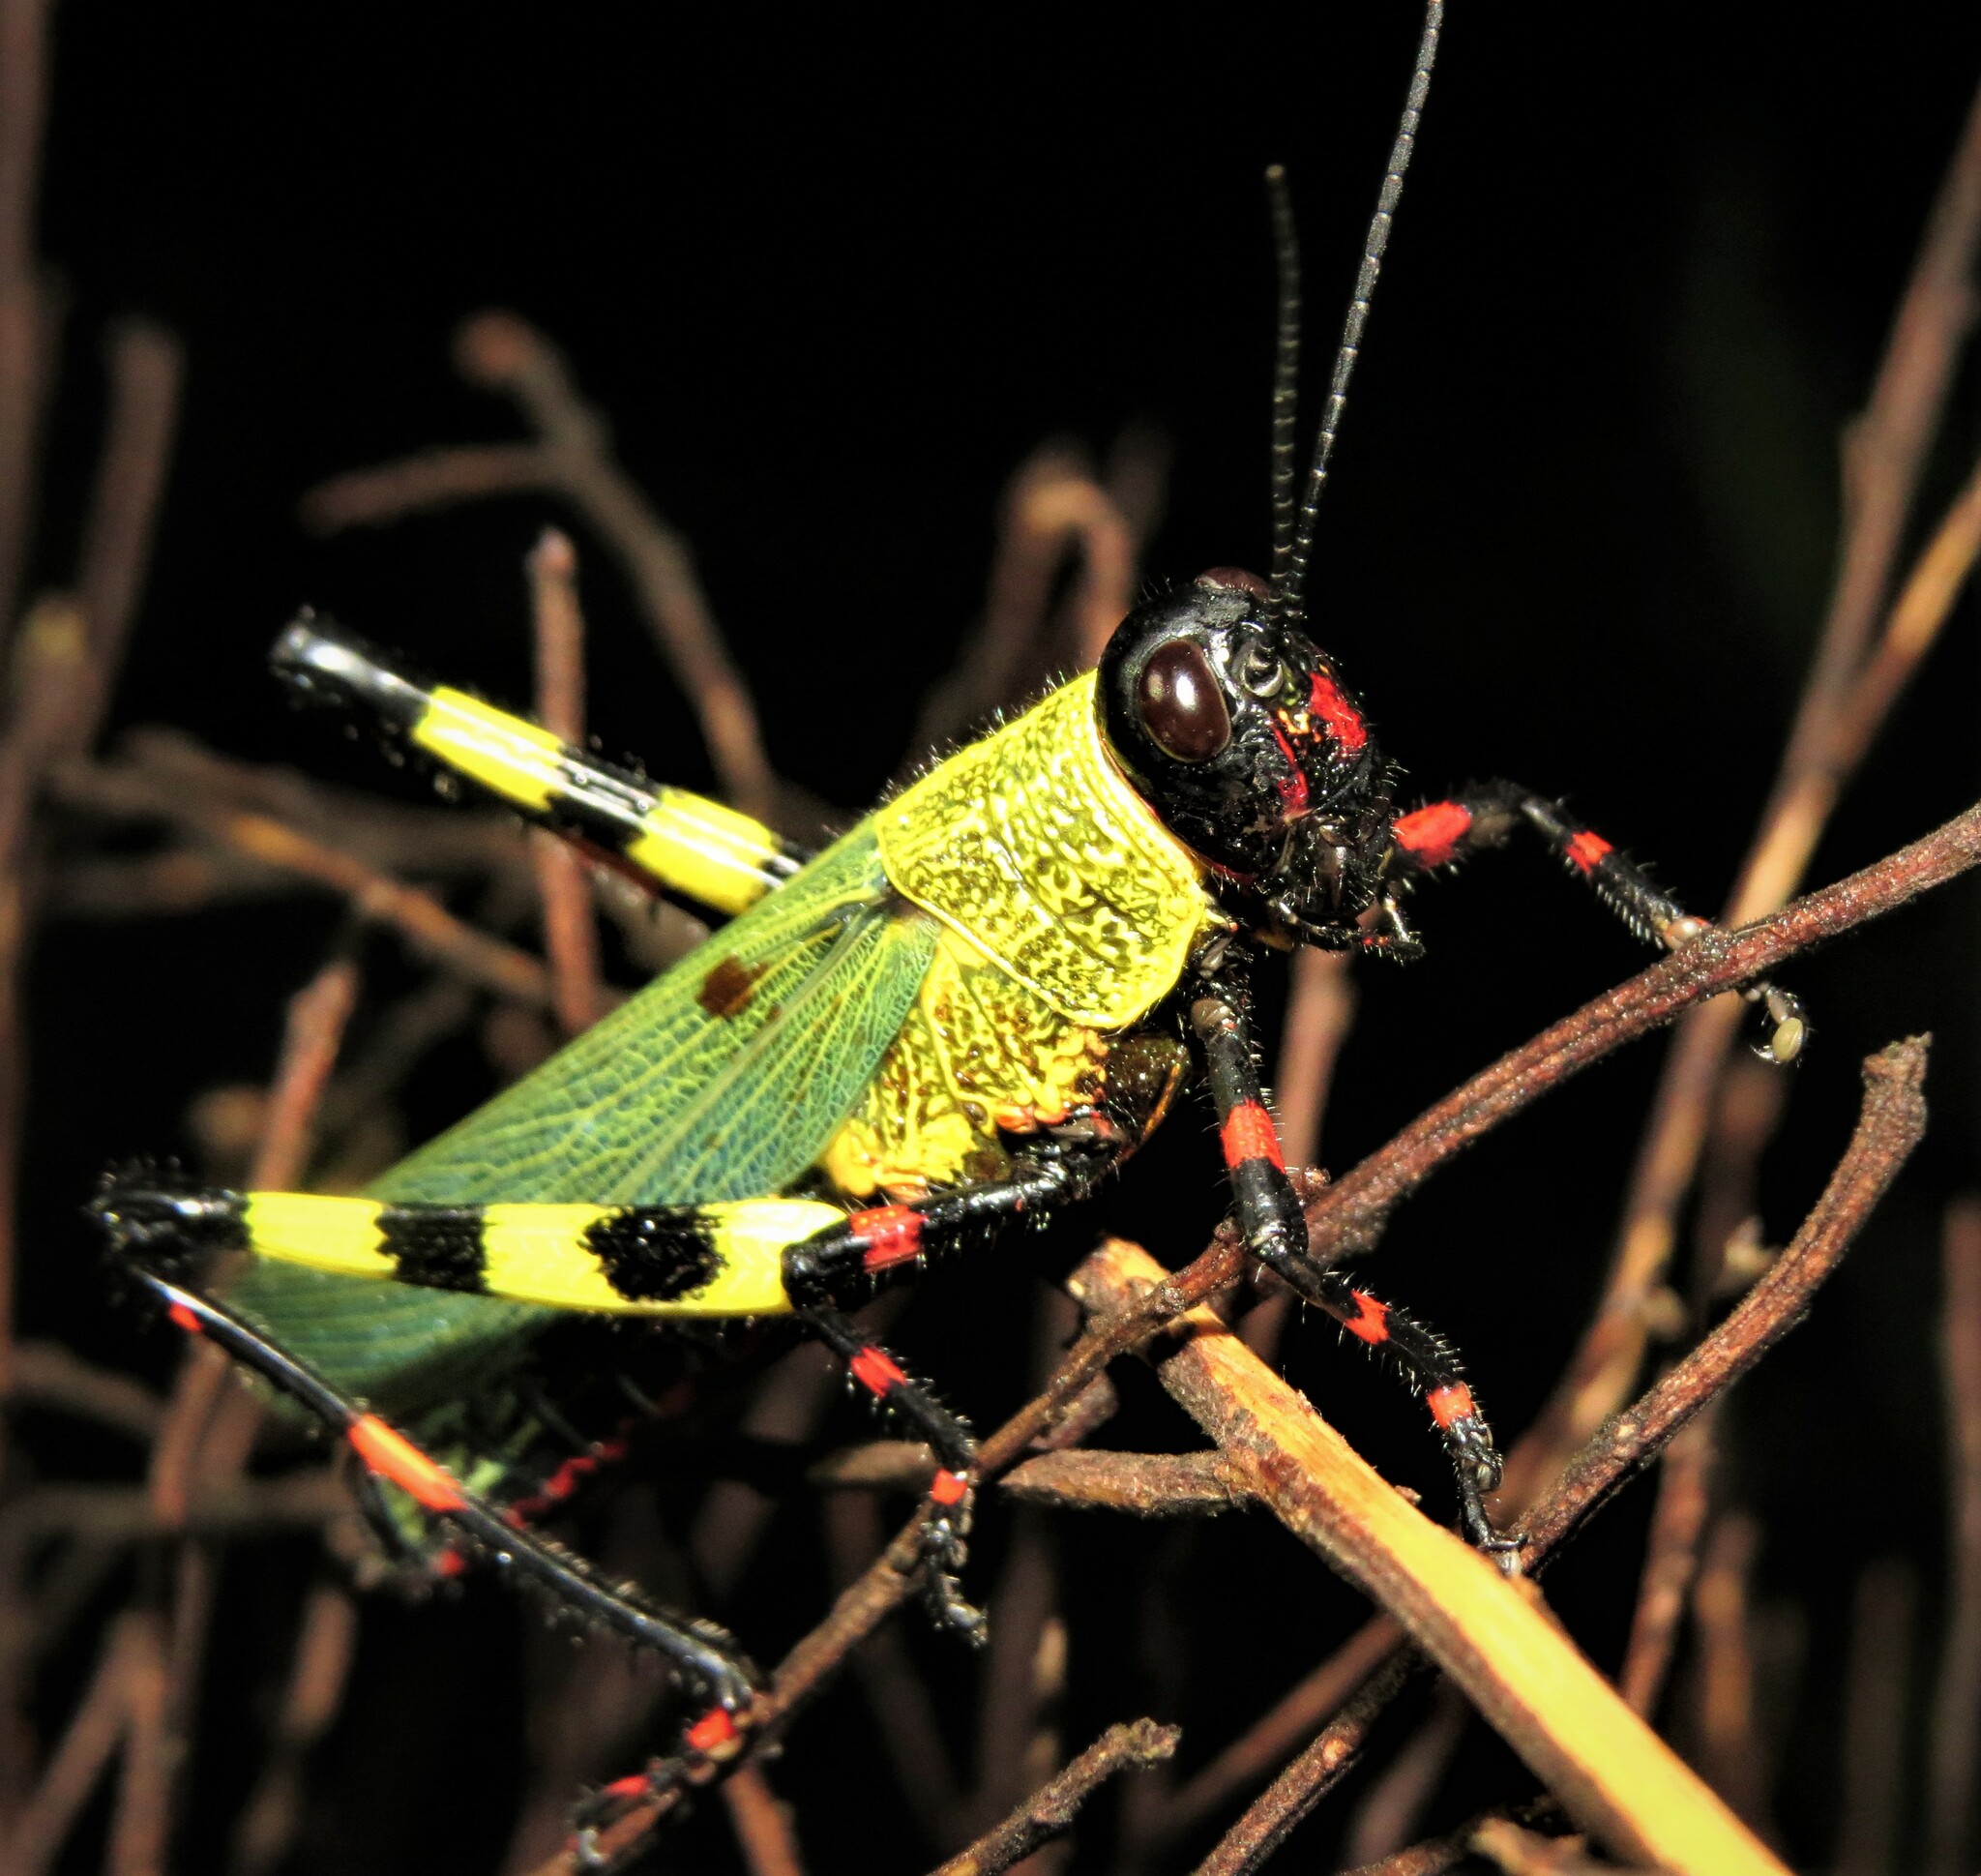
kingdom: Animalia
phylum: Arthropoda
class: Insecta
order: Orthoptera
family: Romaleidae
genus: Zoniopoda
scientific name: Zoniopoda tarsata
